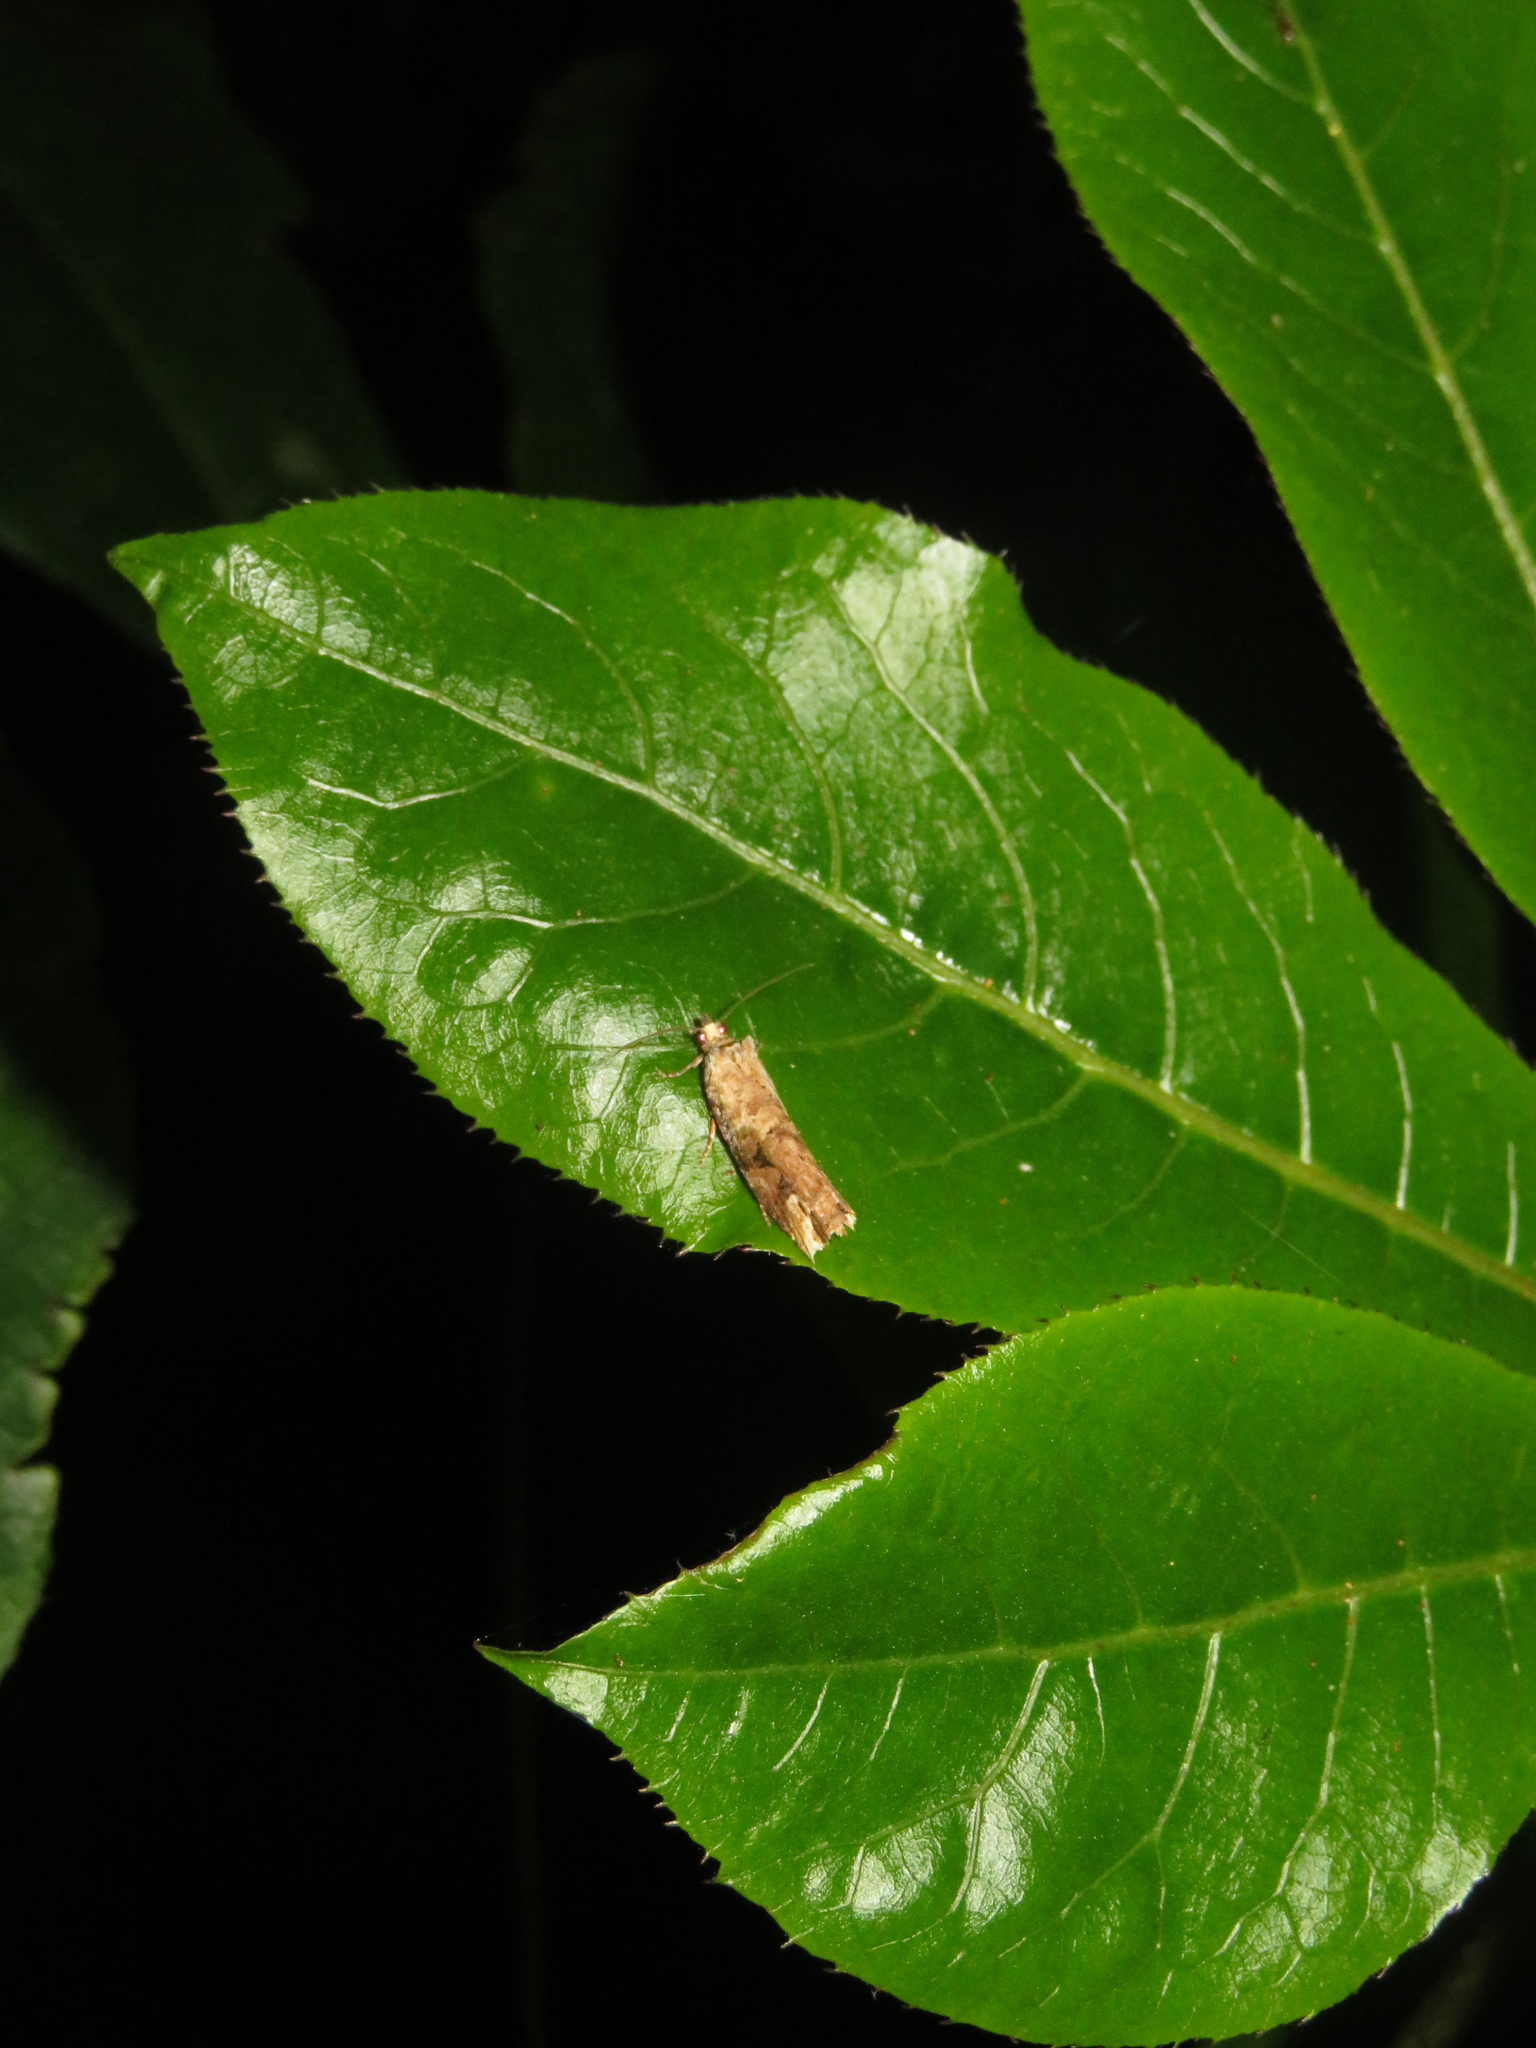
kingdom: Animalia
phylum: Arthropoda
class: Insecta
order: Lepidoptera
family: Tortricidae
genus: Epalxiphora
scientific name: Epalxiphora axenana
